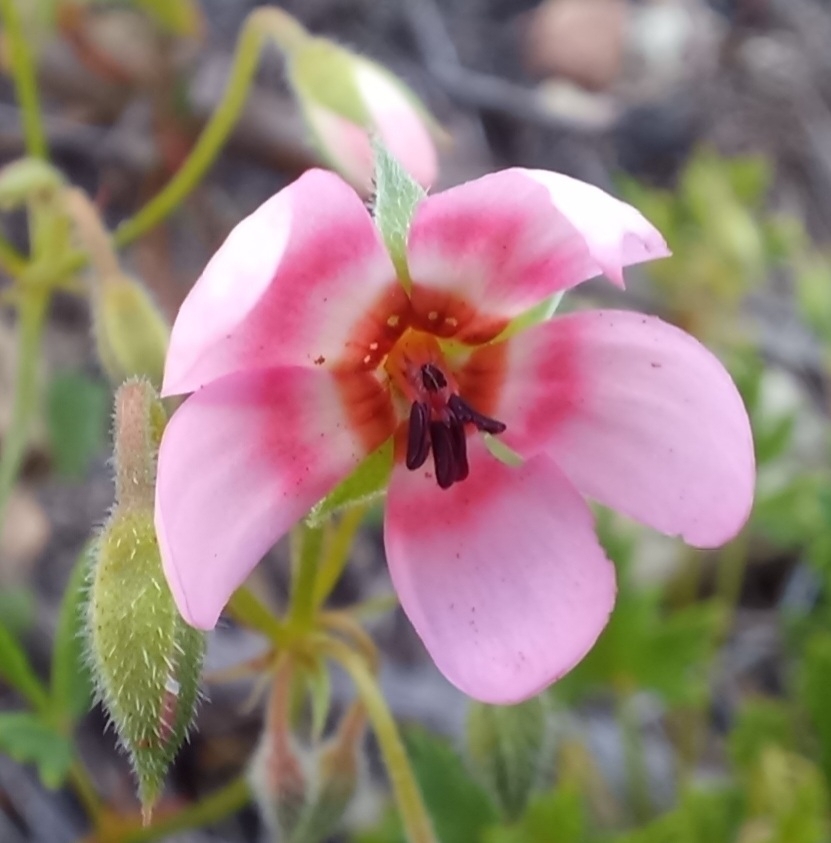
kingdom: Plantae
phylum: Tracheophyta
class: Magnoliopsida
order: Geraniales
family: Geraniaceae
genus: Pelargonium
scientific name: Pelargonium incarnatum
